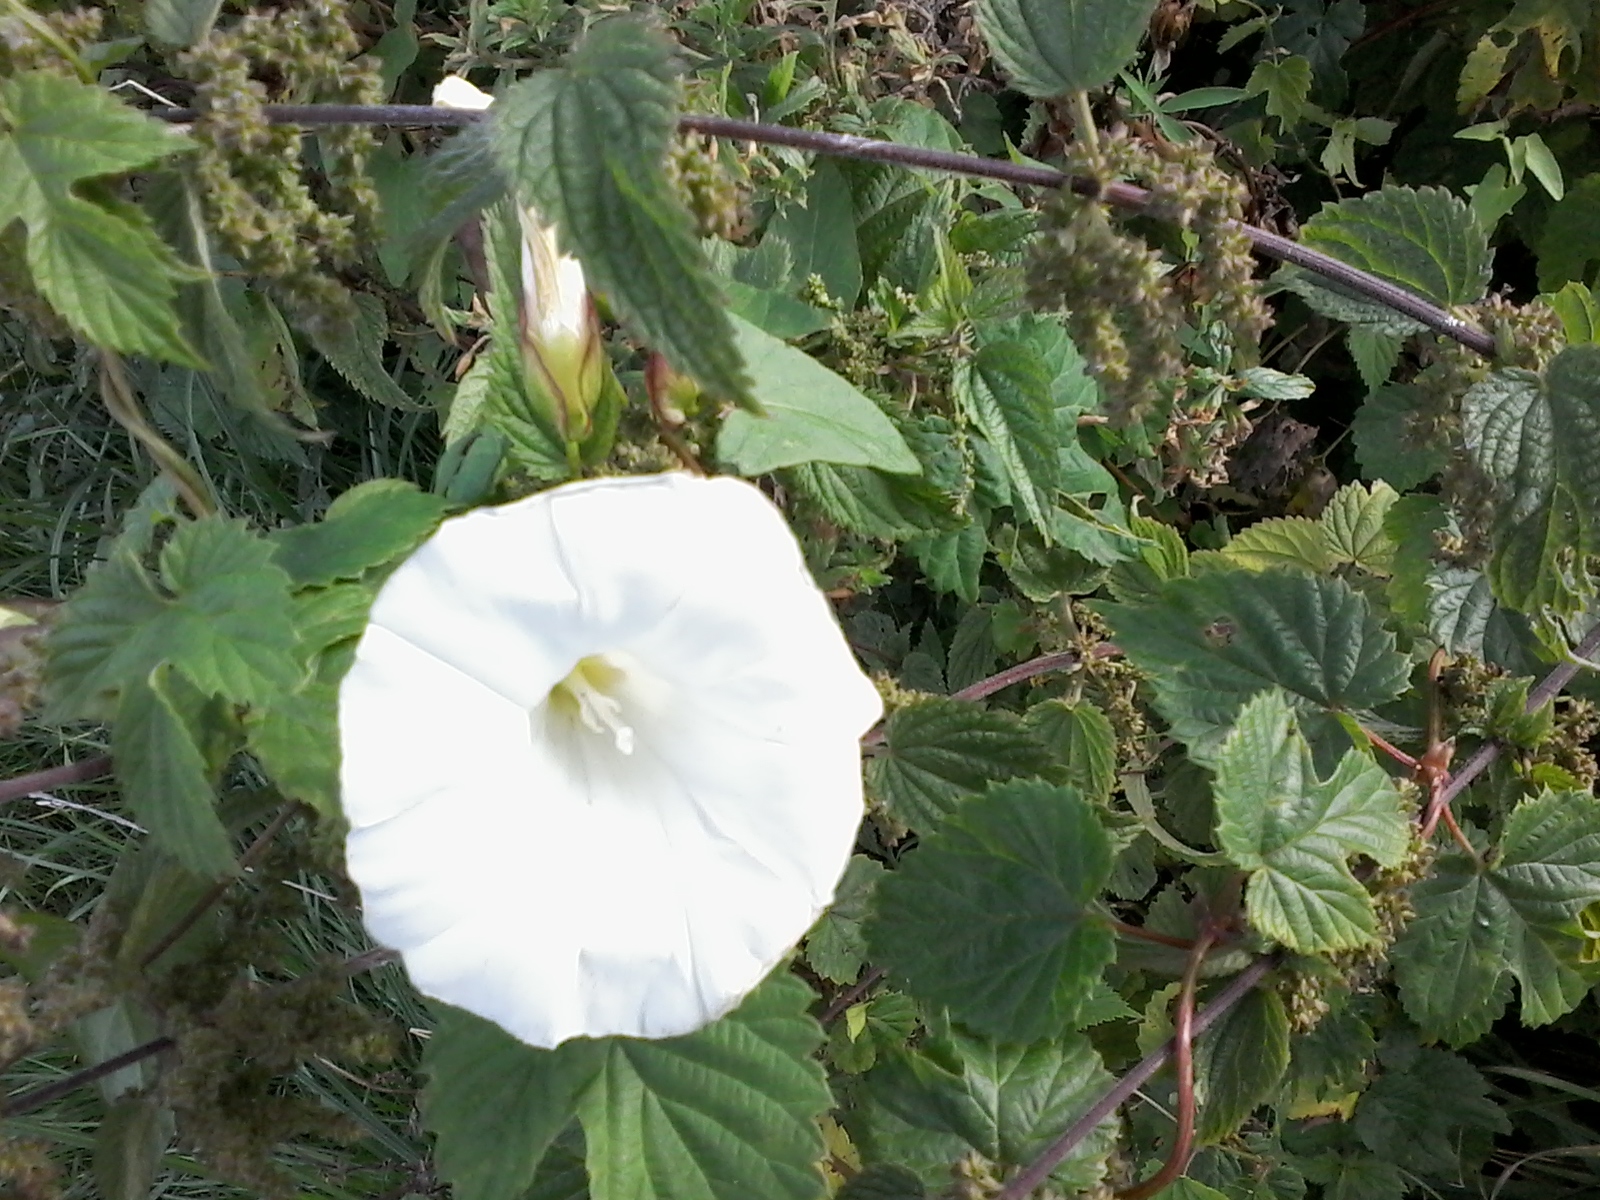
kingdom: Plantae
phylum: Tracheophyta
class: Magnoliopsida
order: Solanales
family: Convolvulaceae
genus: Calystegia
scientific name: Calystegia sepium
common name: Hedge bindweed
